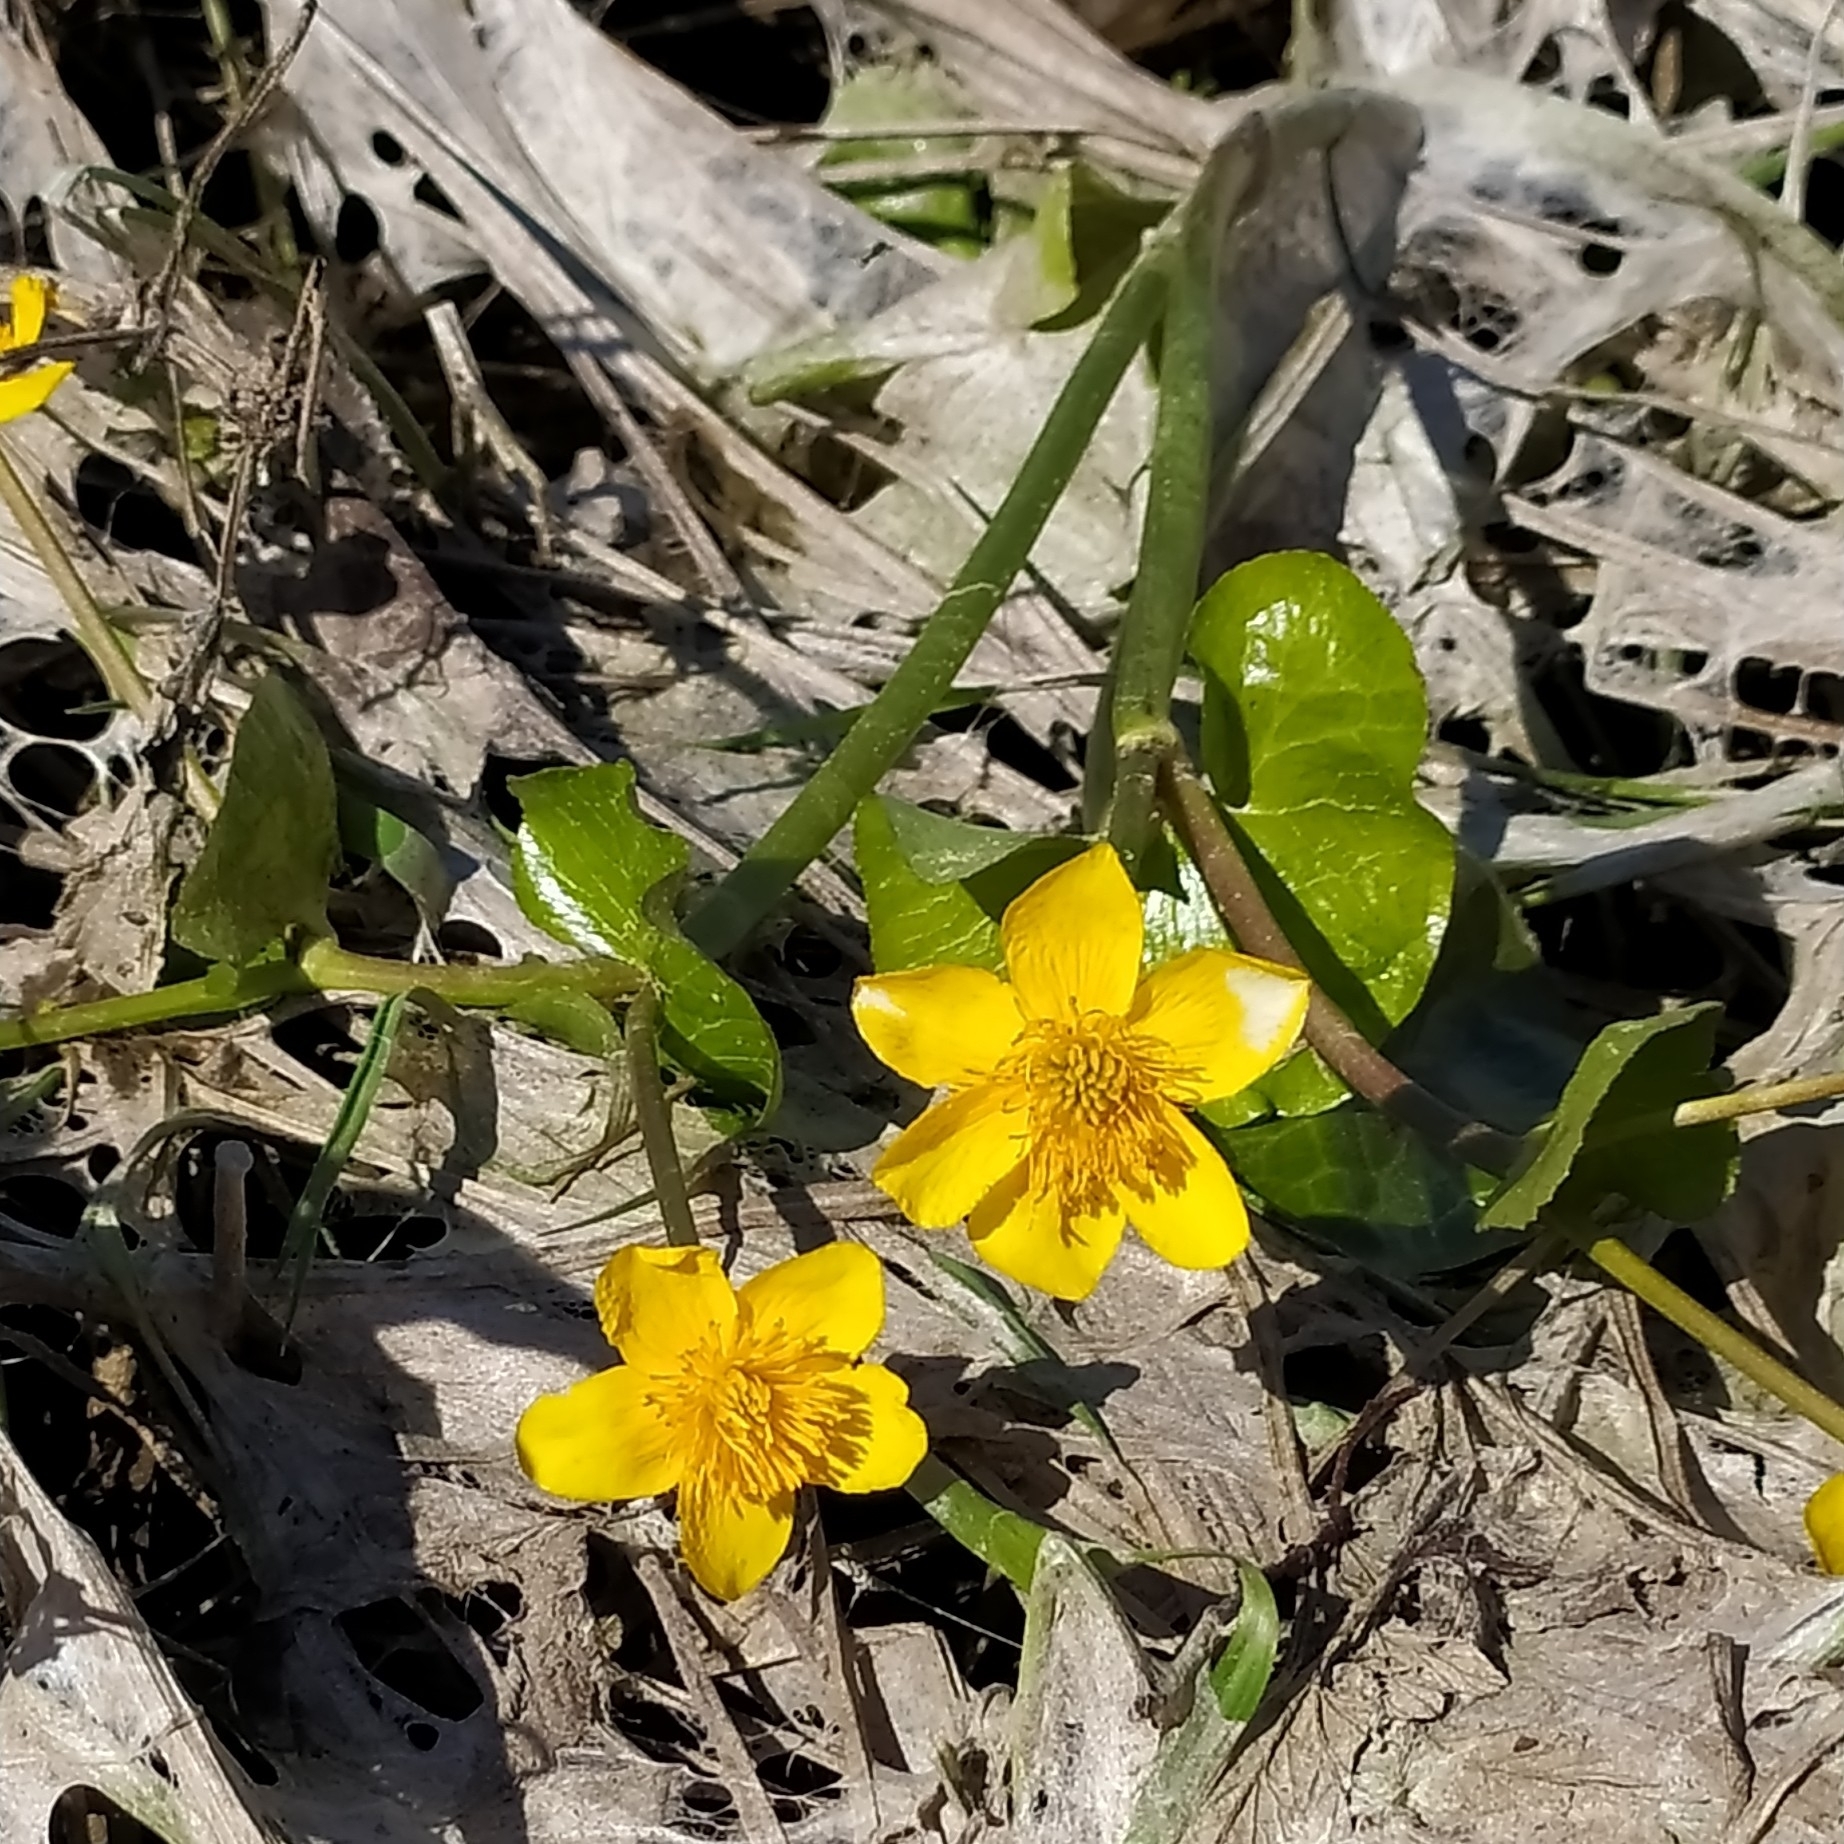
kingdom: Plantae
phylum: Tracheophyta
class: Magnoliopsida
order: Ranunculales
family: Ranunculaceae
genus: Caltha
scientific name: Caltha palustris
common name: Marsh marigold
